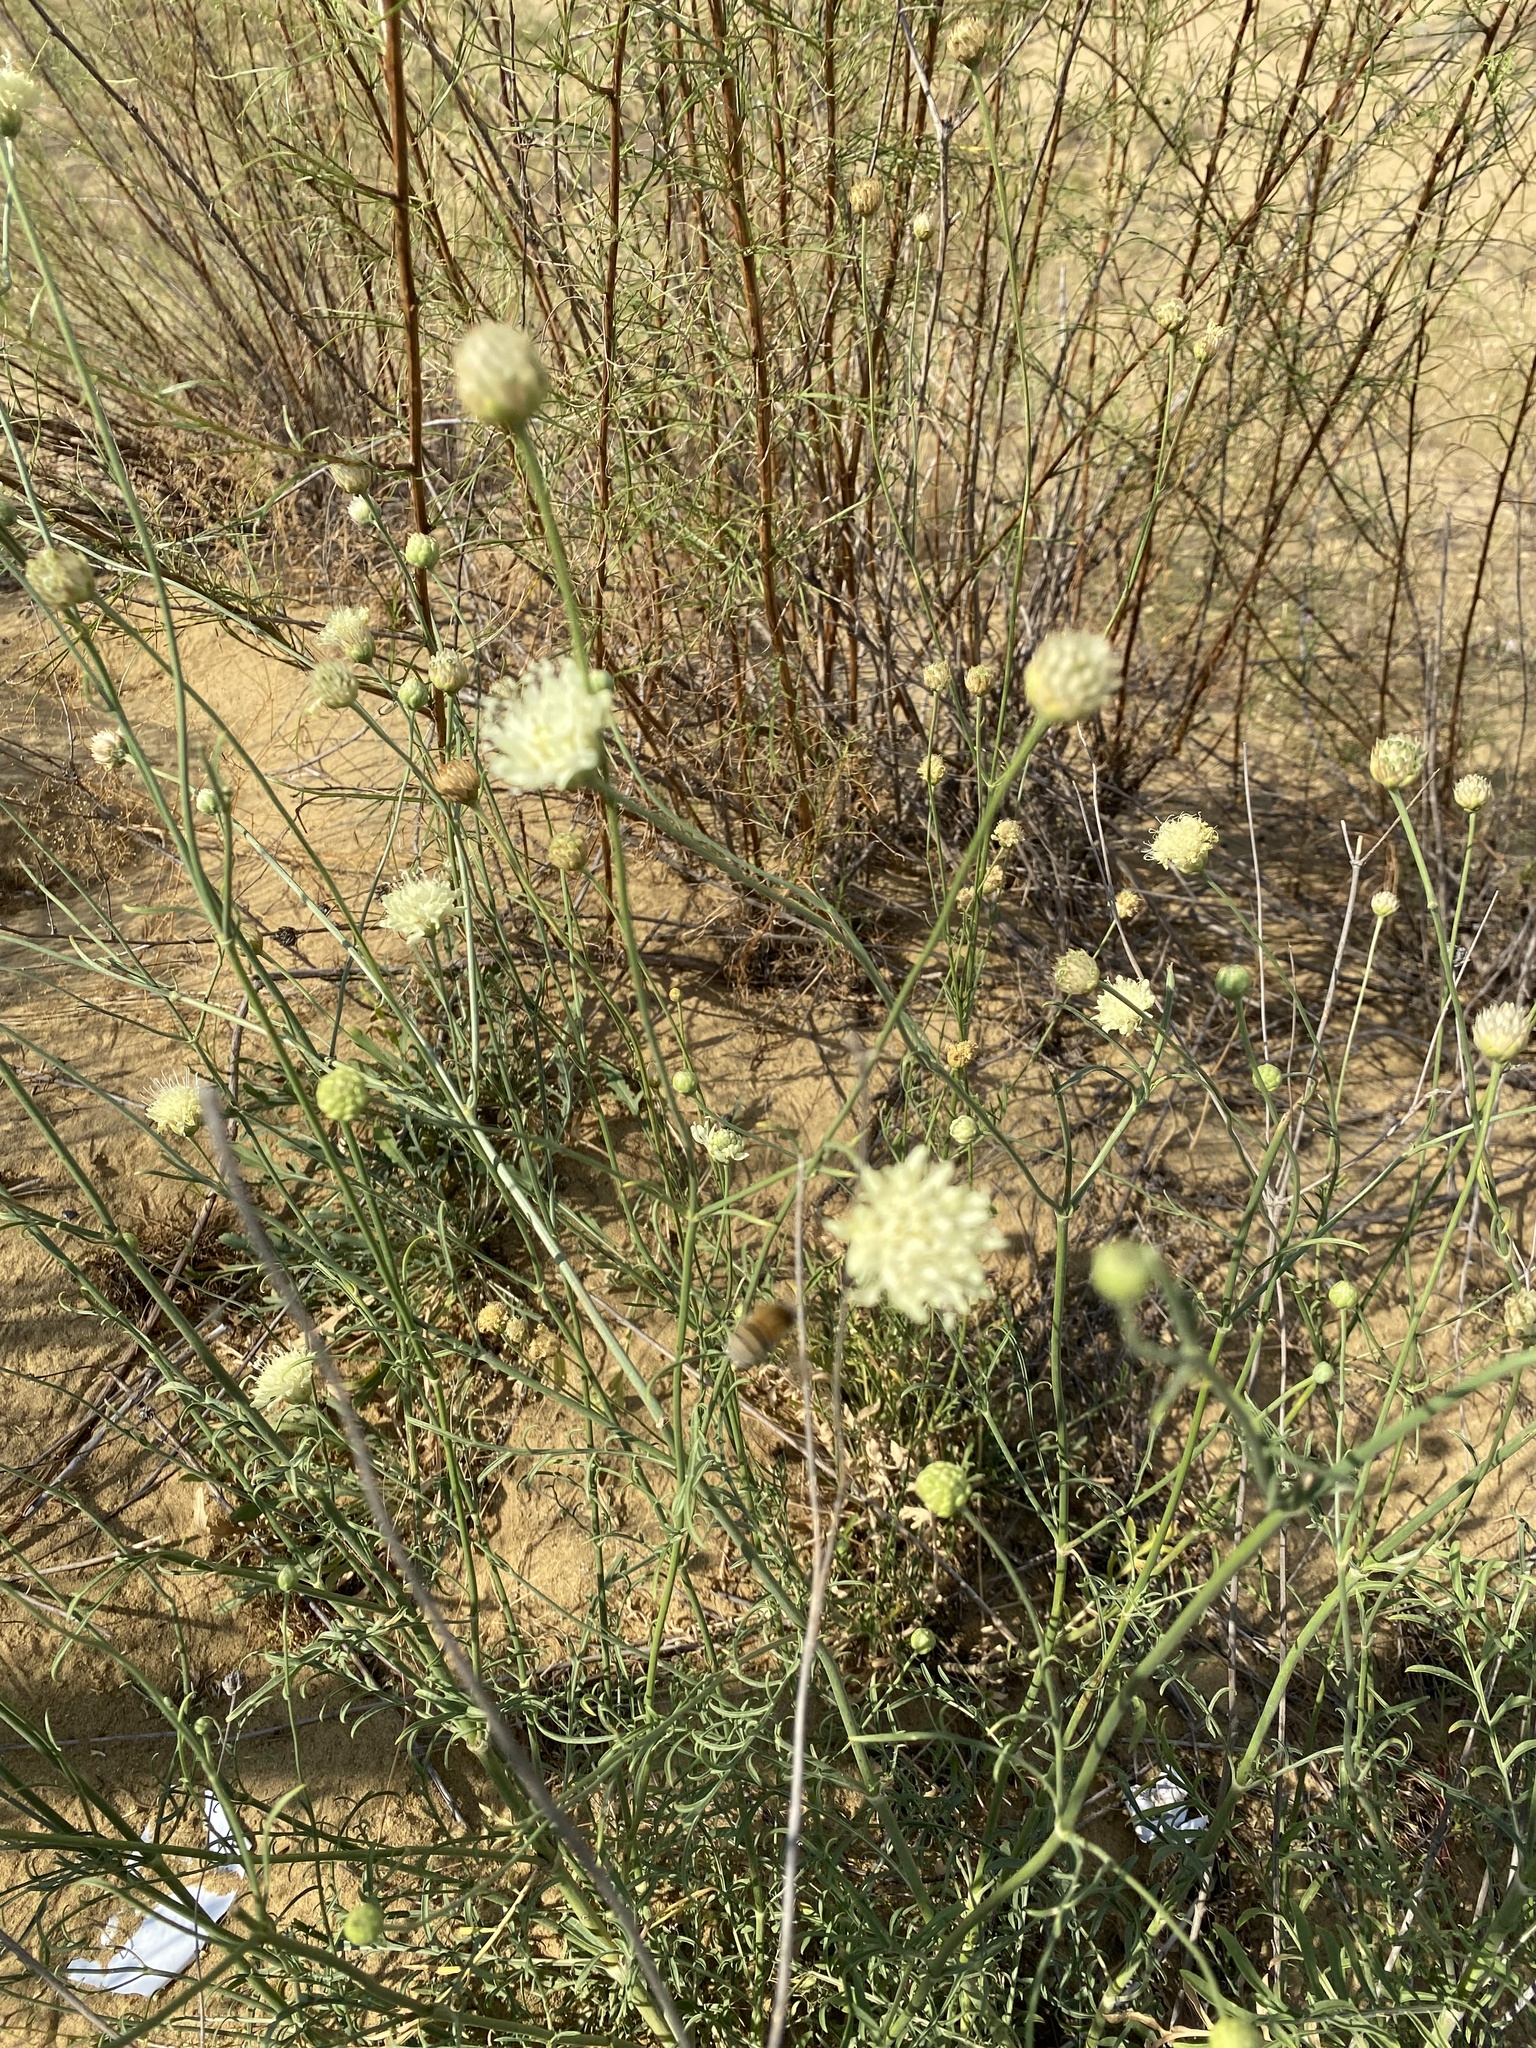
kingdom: Plantae
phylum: Tracheophyta
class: Magnoliopsida
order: Dipsacales
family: Caprifoliaceae
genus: Cephalaria
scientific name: Cephalaria uralensis
